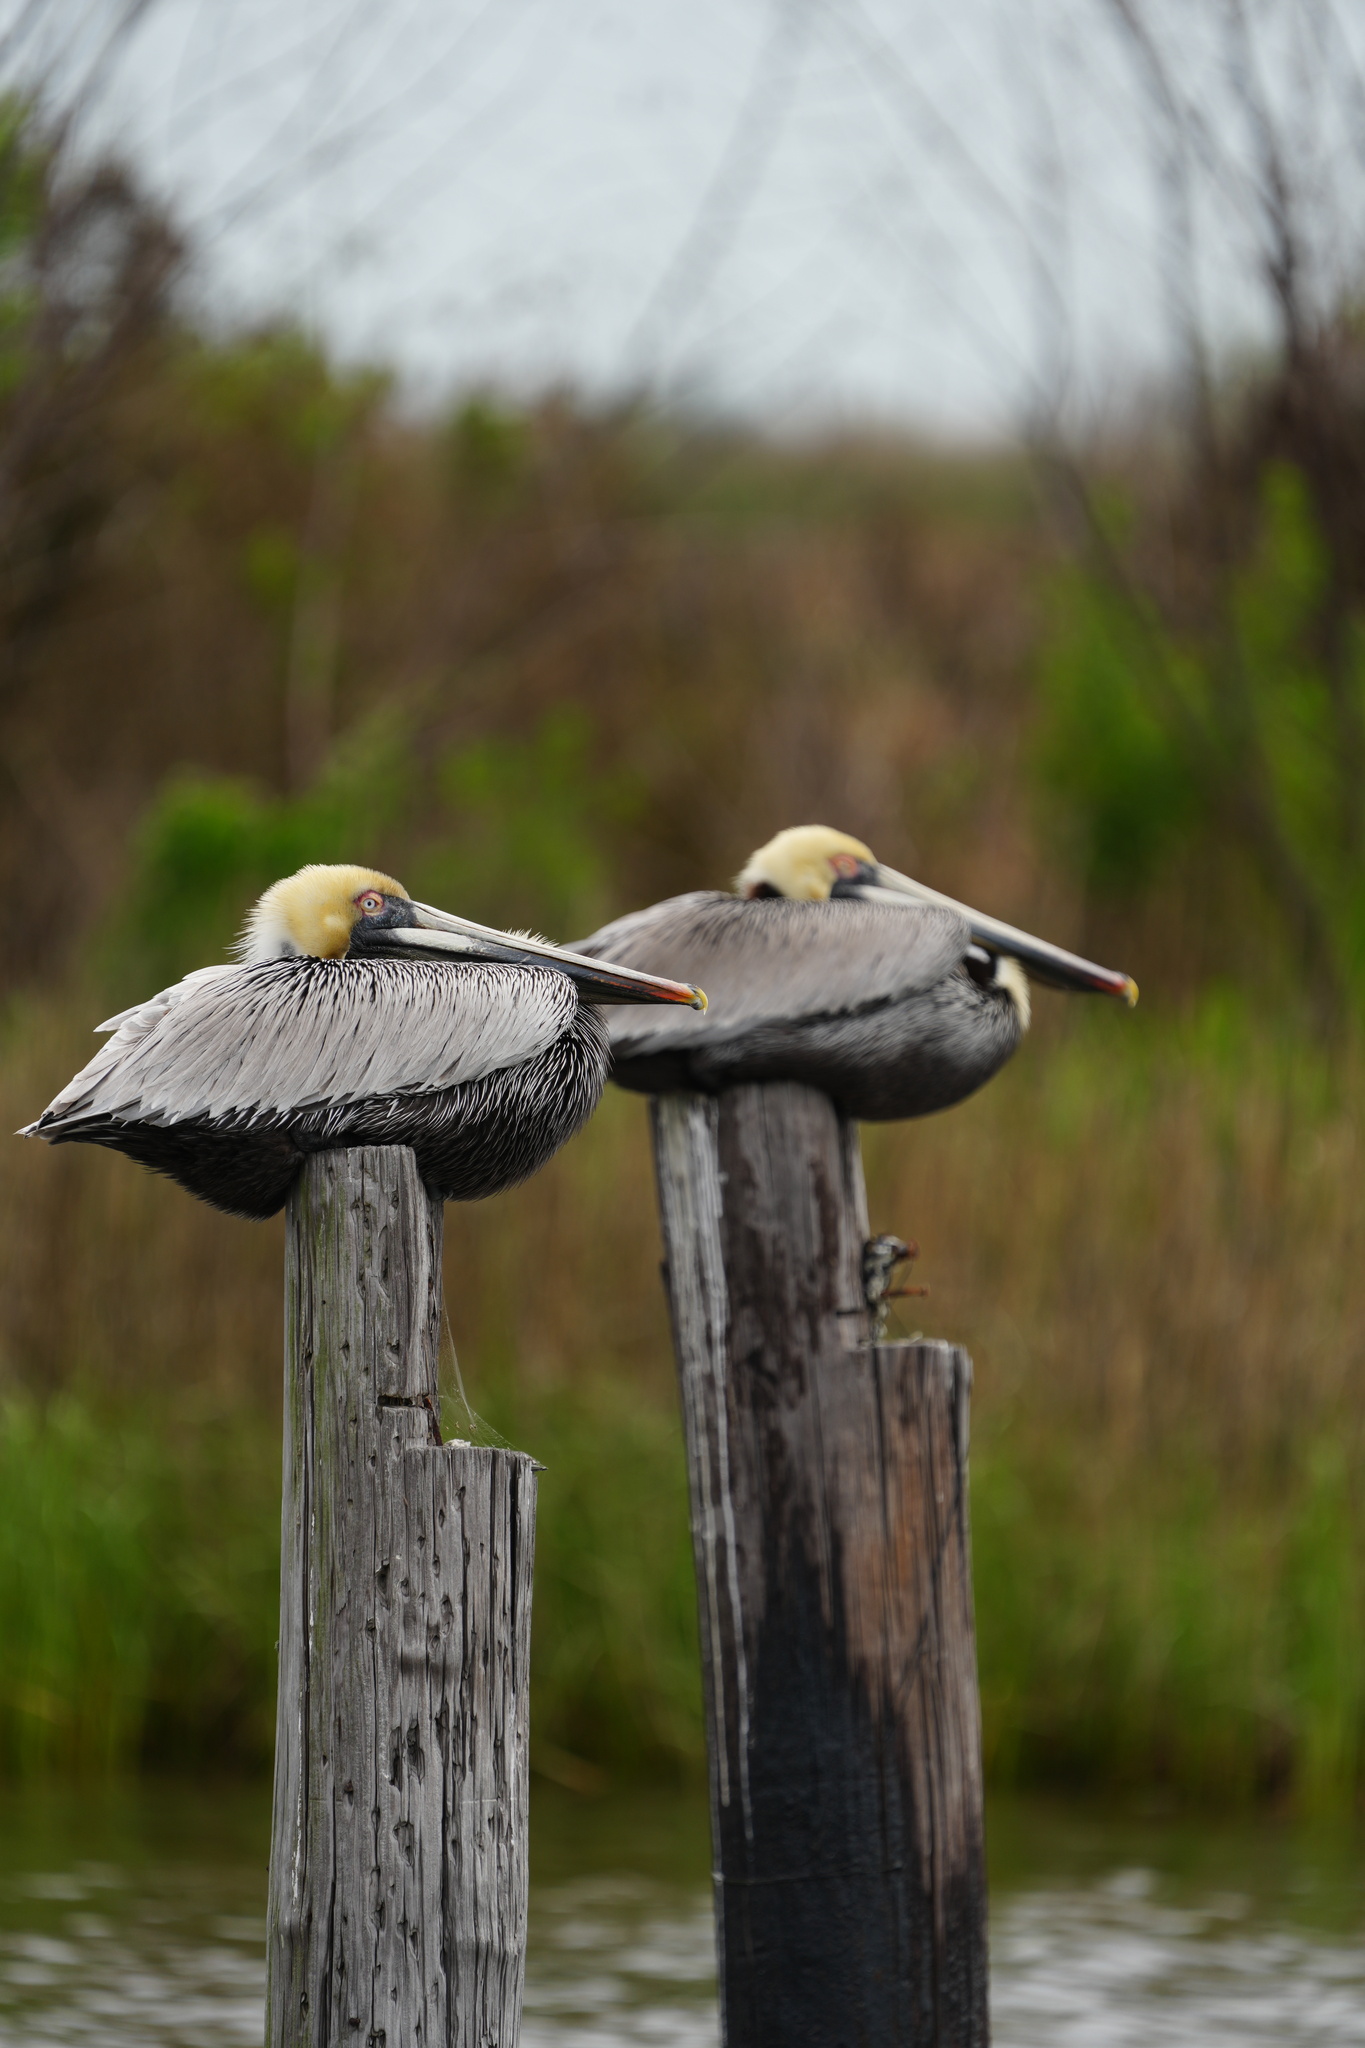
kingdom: Animalia
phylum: Chordata
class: Aves
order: Pelecaniformes
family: Pelecanidae
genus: Pelecanus
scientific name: Pelecanus occidentalis
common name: Brown pelican
